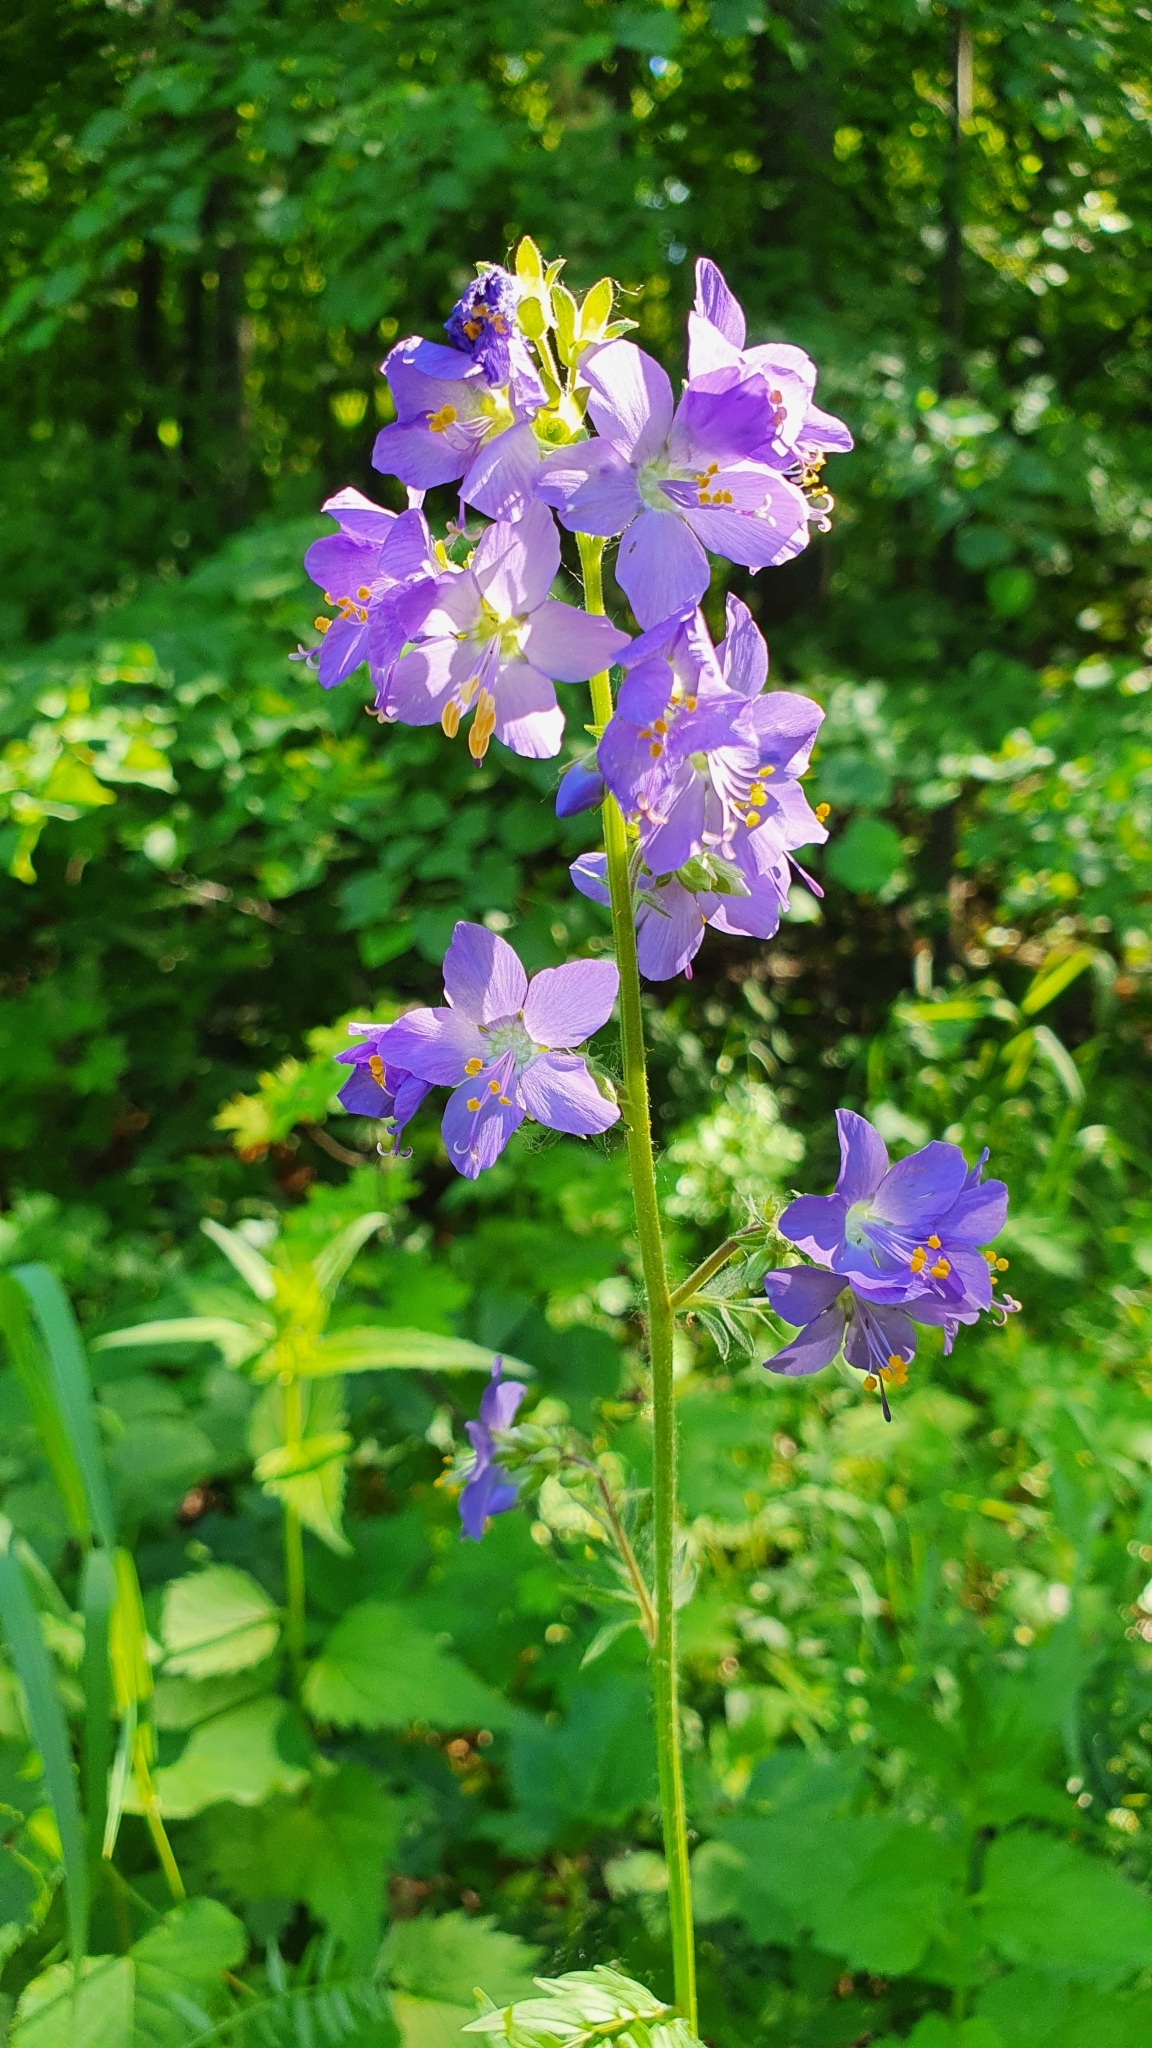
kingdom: Plantae
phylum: Tracheophyta
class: Magnoliopsida
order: Ericales
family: Polemoniaceae
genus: Polemonium
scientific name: Polemonium caeruleum
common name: Jacob's-ladder
